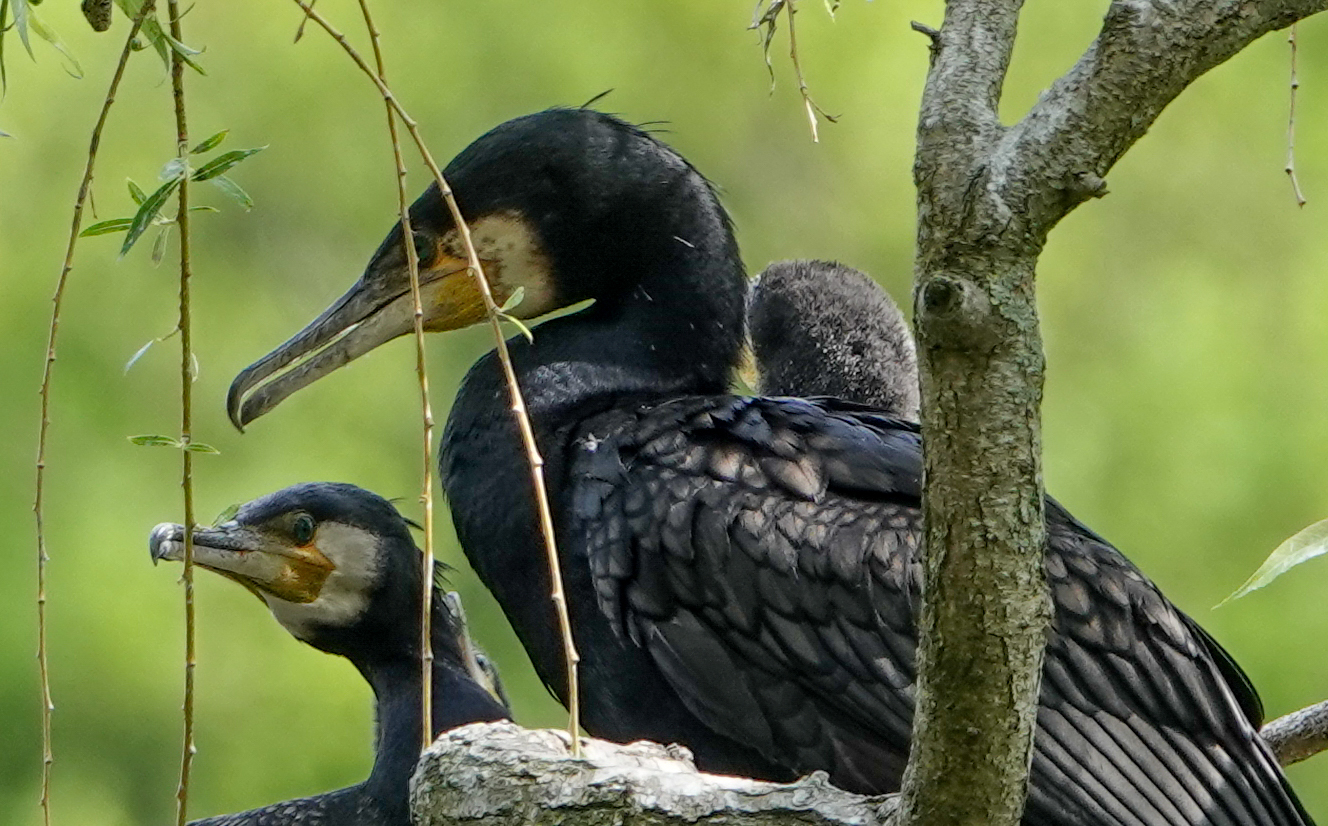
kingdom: Animalia
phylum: Chordata
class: Aves
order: Suliformes
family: Phalacrocoracidae
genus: Phalacrocorax
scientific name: Phalacrocorax carbo
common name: Great cormorant
